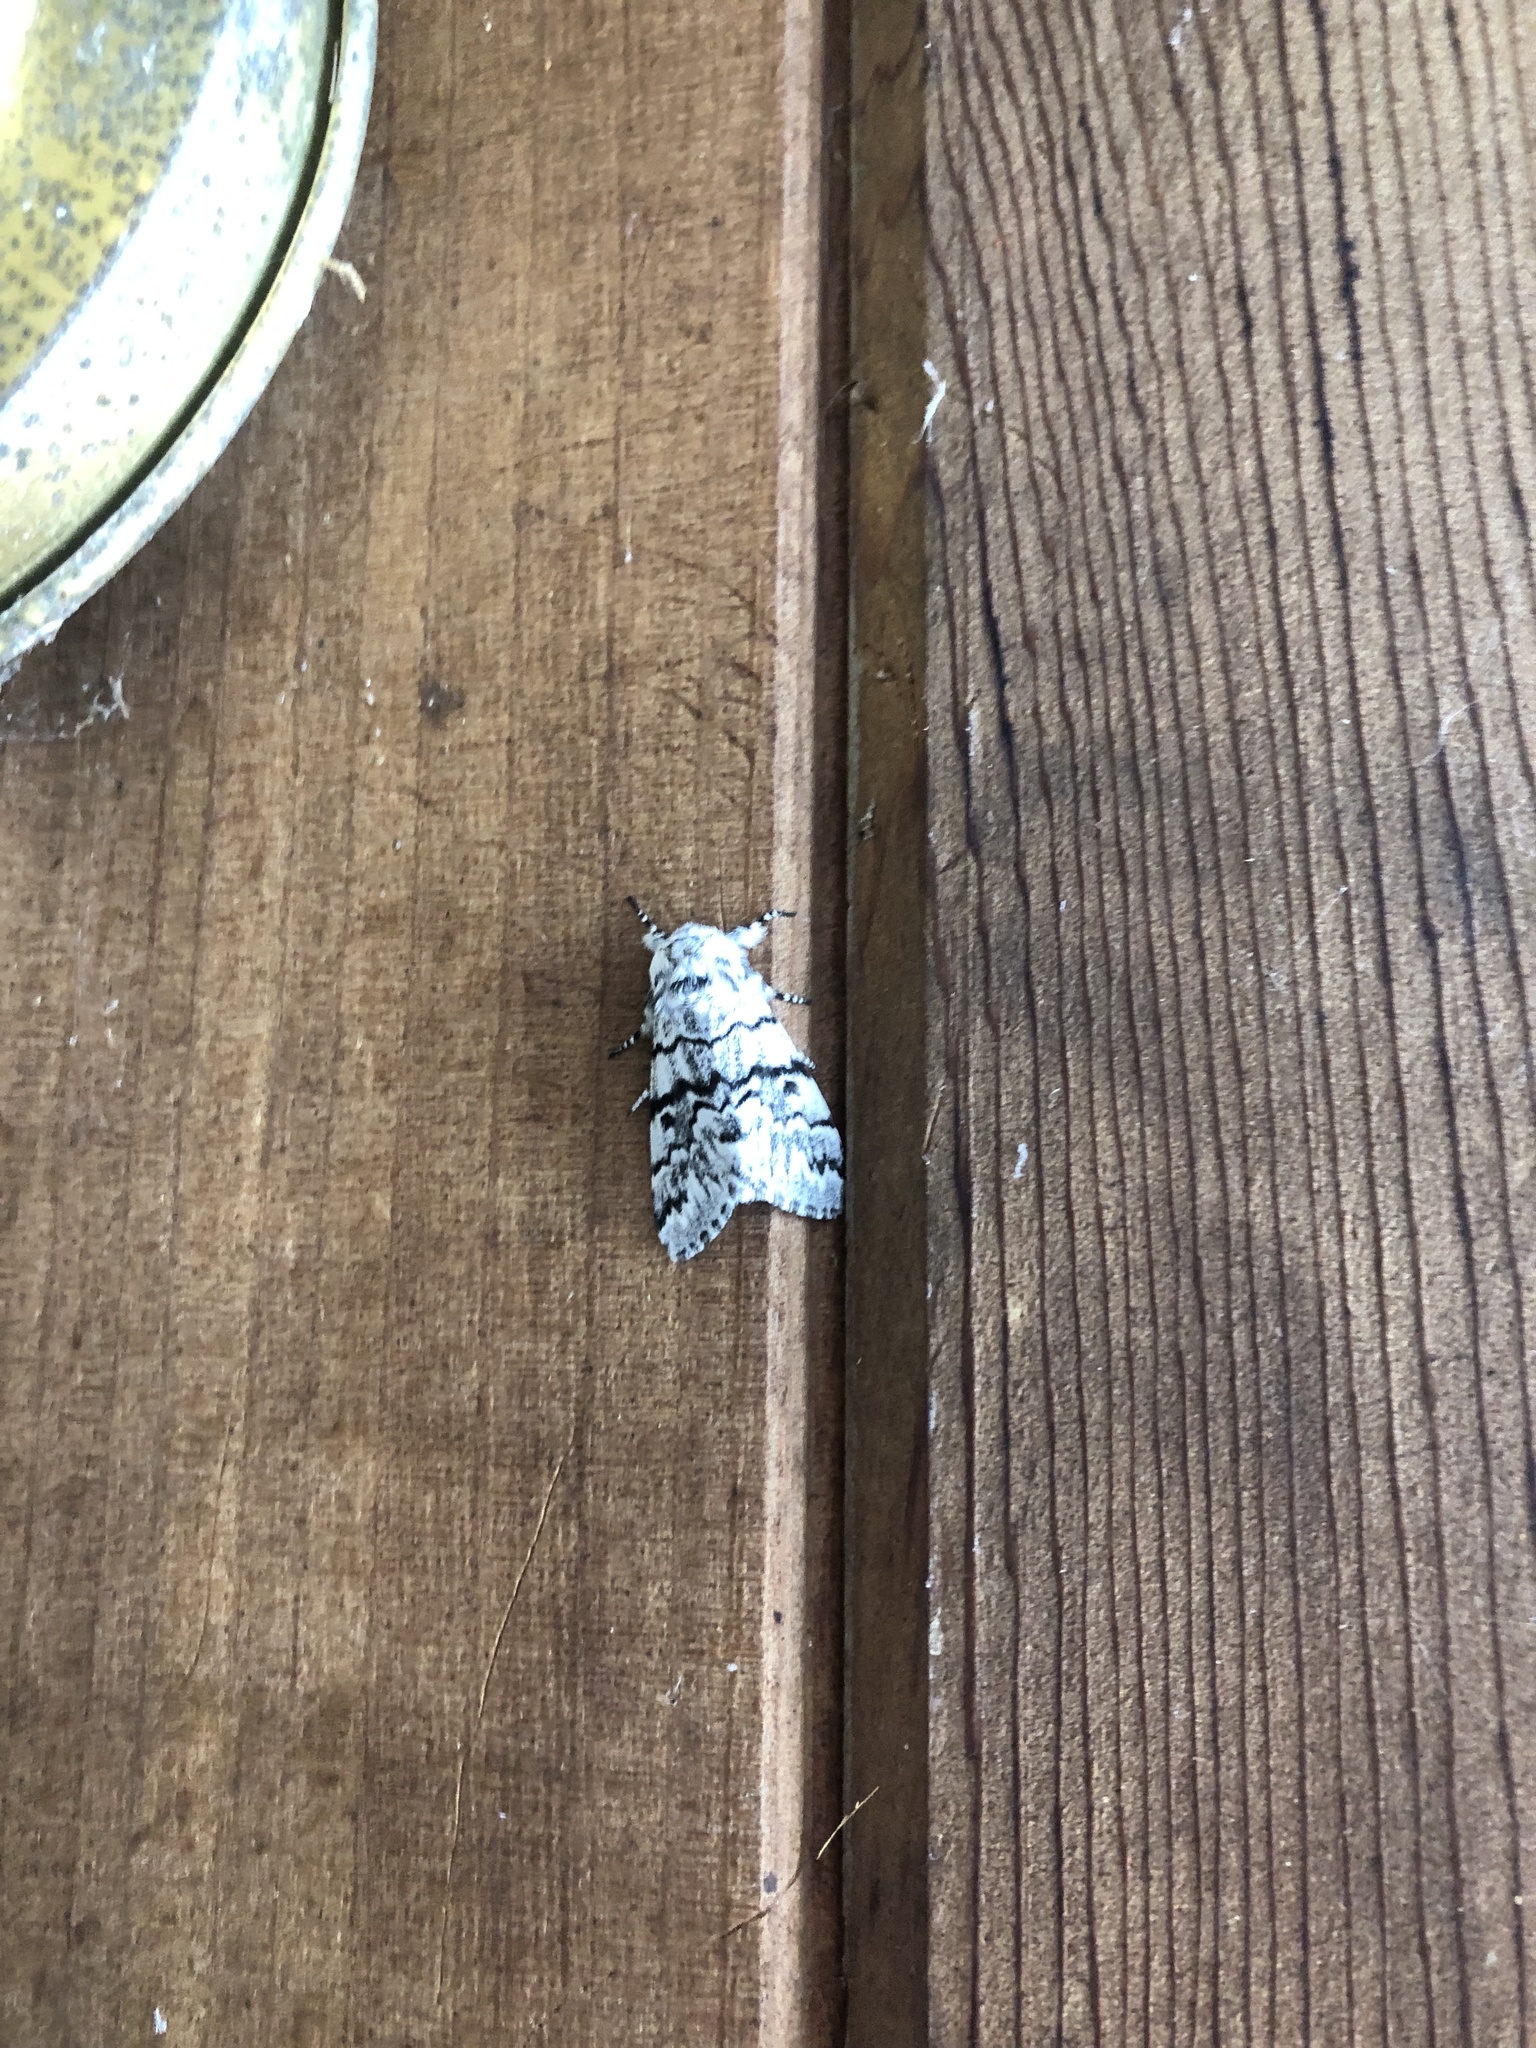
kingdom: Animalia
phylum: Arthropoda
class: Insecta
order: Lepidoptera
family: Noctuidae
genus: Panthea
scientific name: Panthea virginarius
